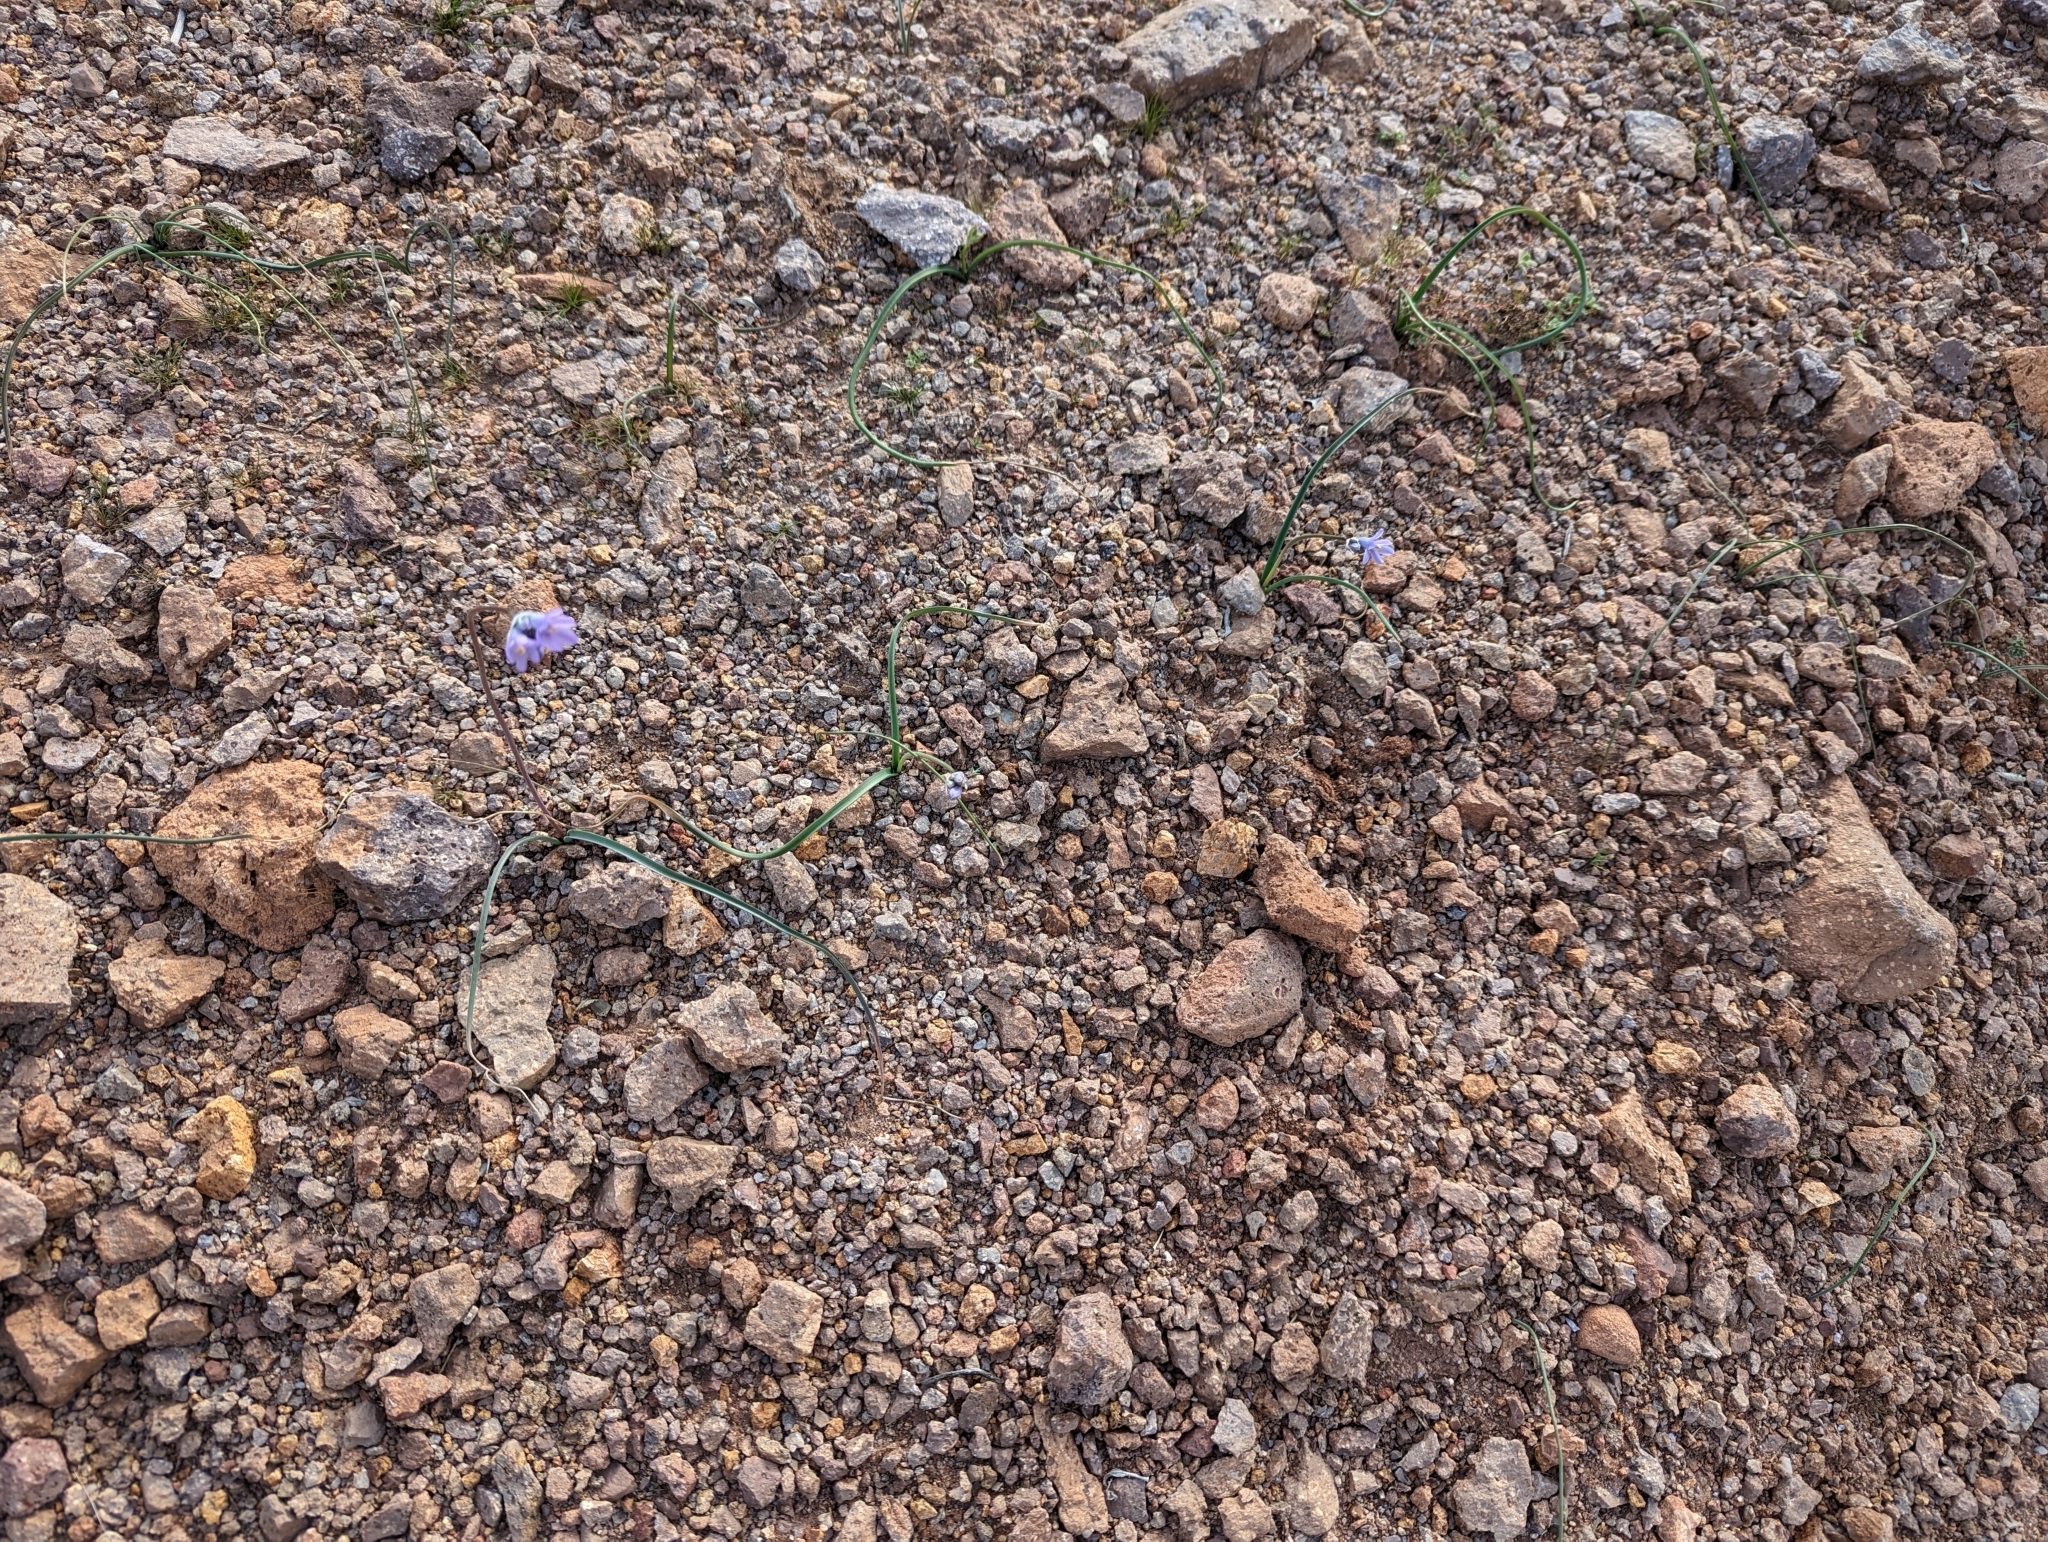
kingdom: Plantae
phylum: Tracheophyta
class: Liliopsida
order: Asparagales
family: Asparagaceae
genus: Dipterostemon
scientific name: Dipterostemon capitatus
